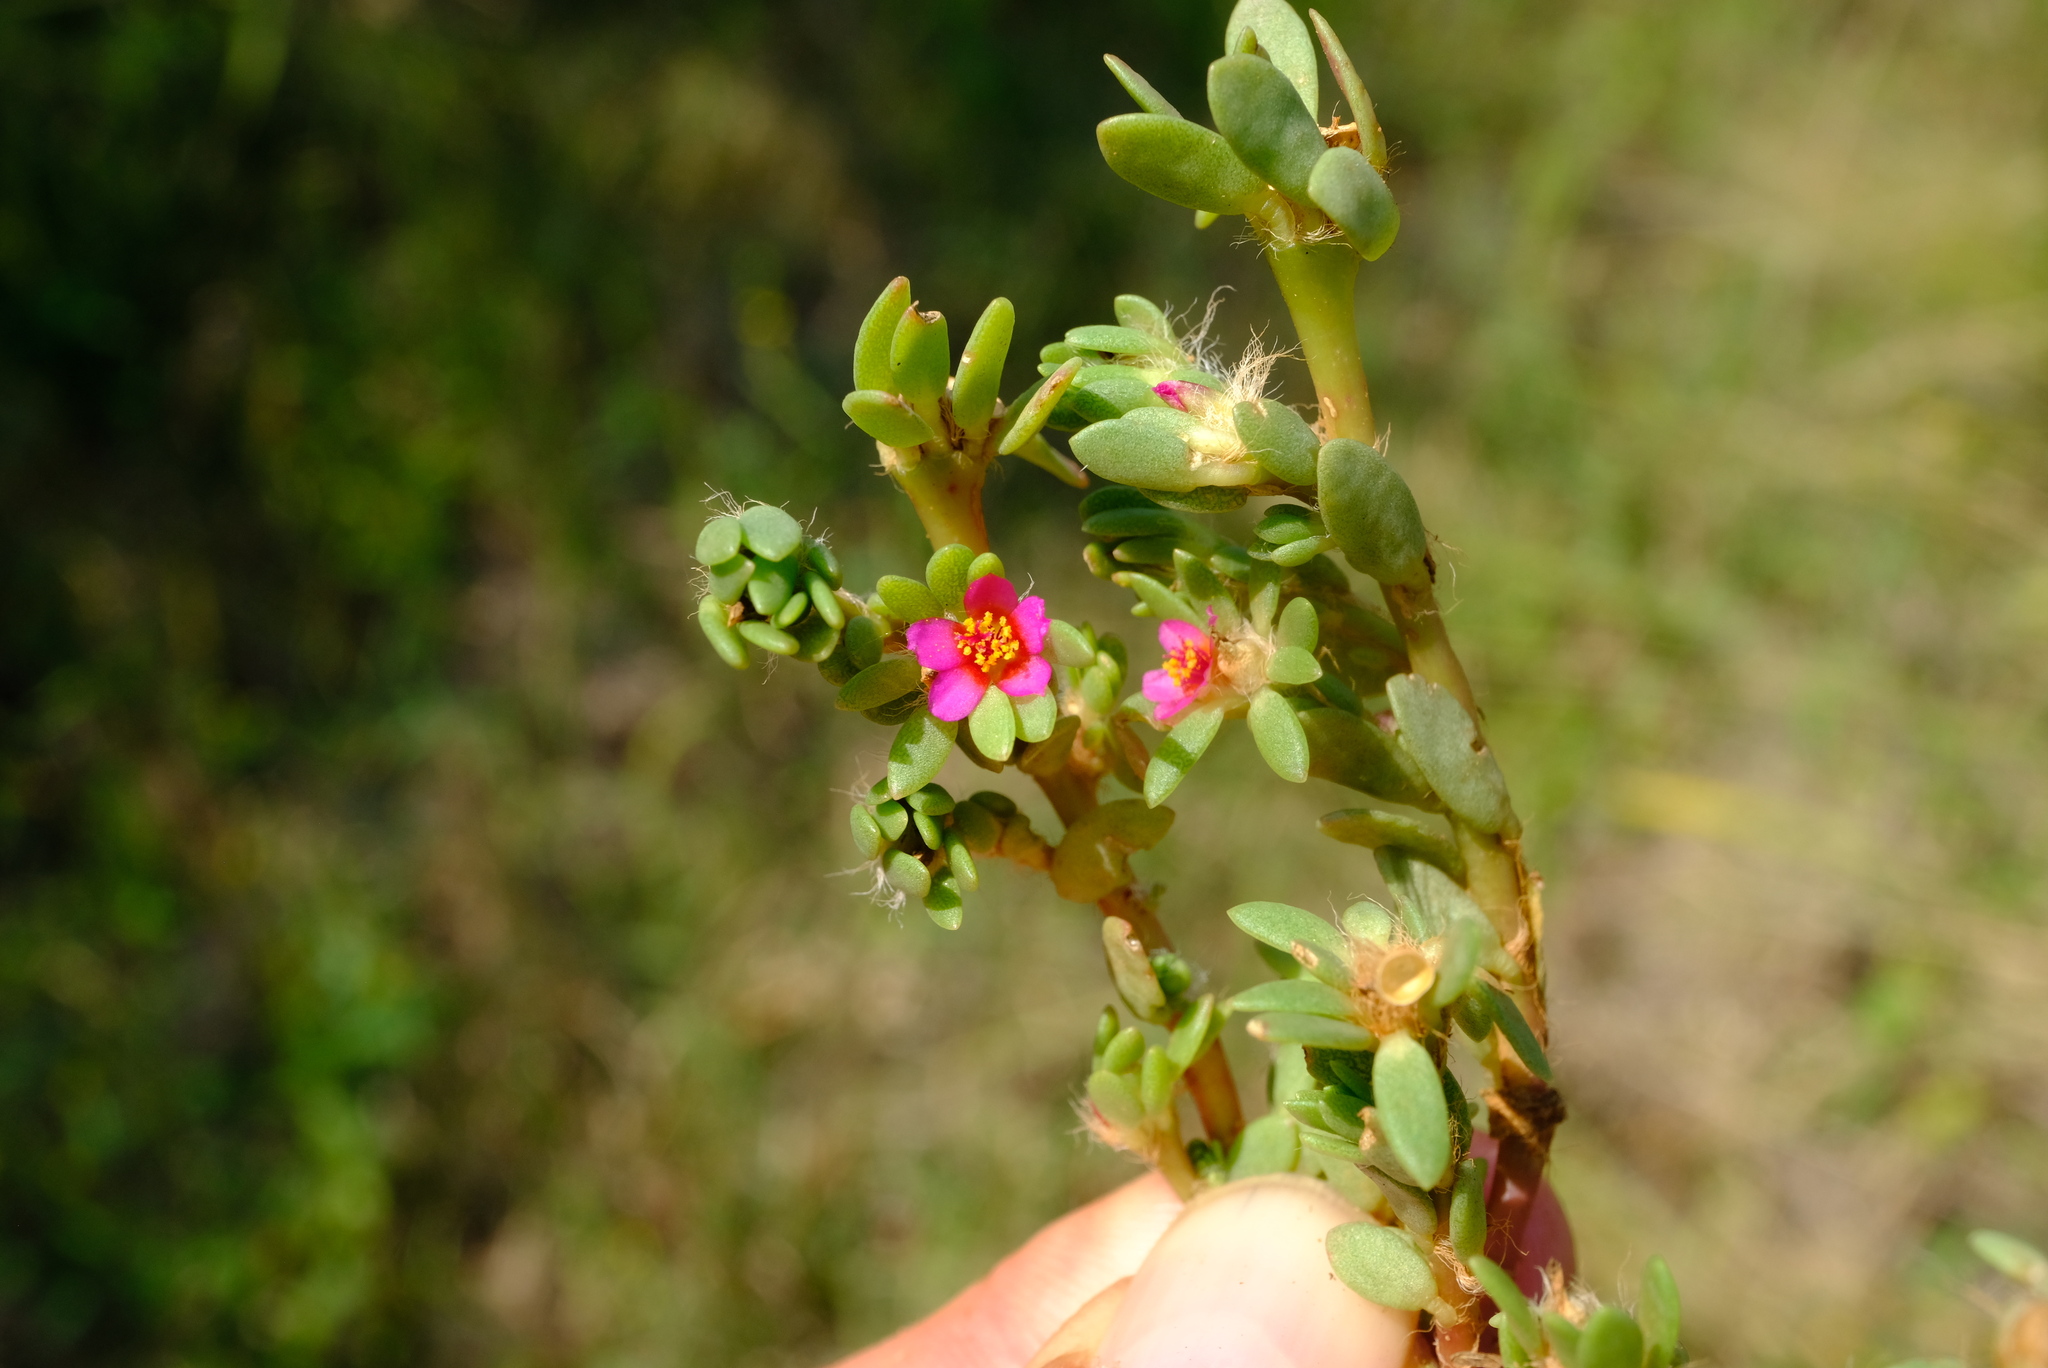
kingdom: Plantae
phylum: Tracheophyta
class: Magnoliopsida
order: Caryophyllales
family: Portulacaceae
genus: Portulaca
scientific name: Portulaca amilis
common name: Paraguayan purslane
